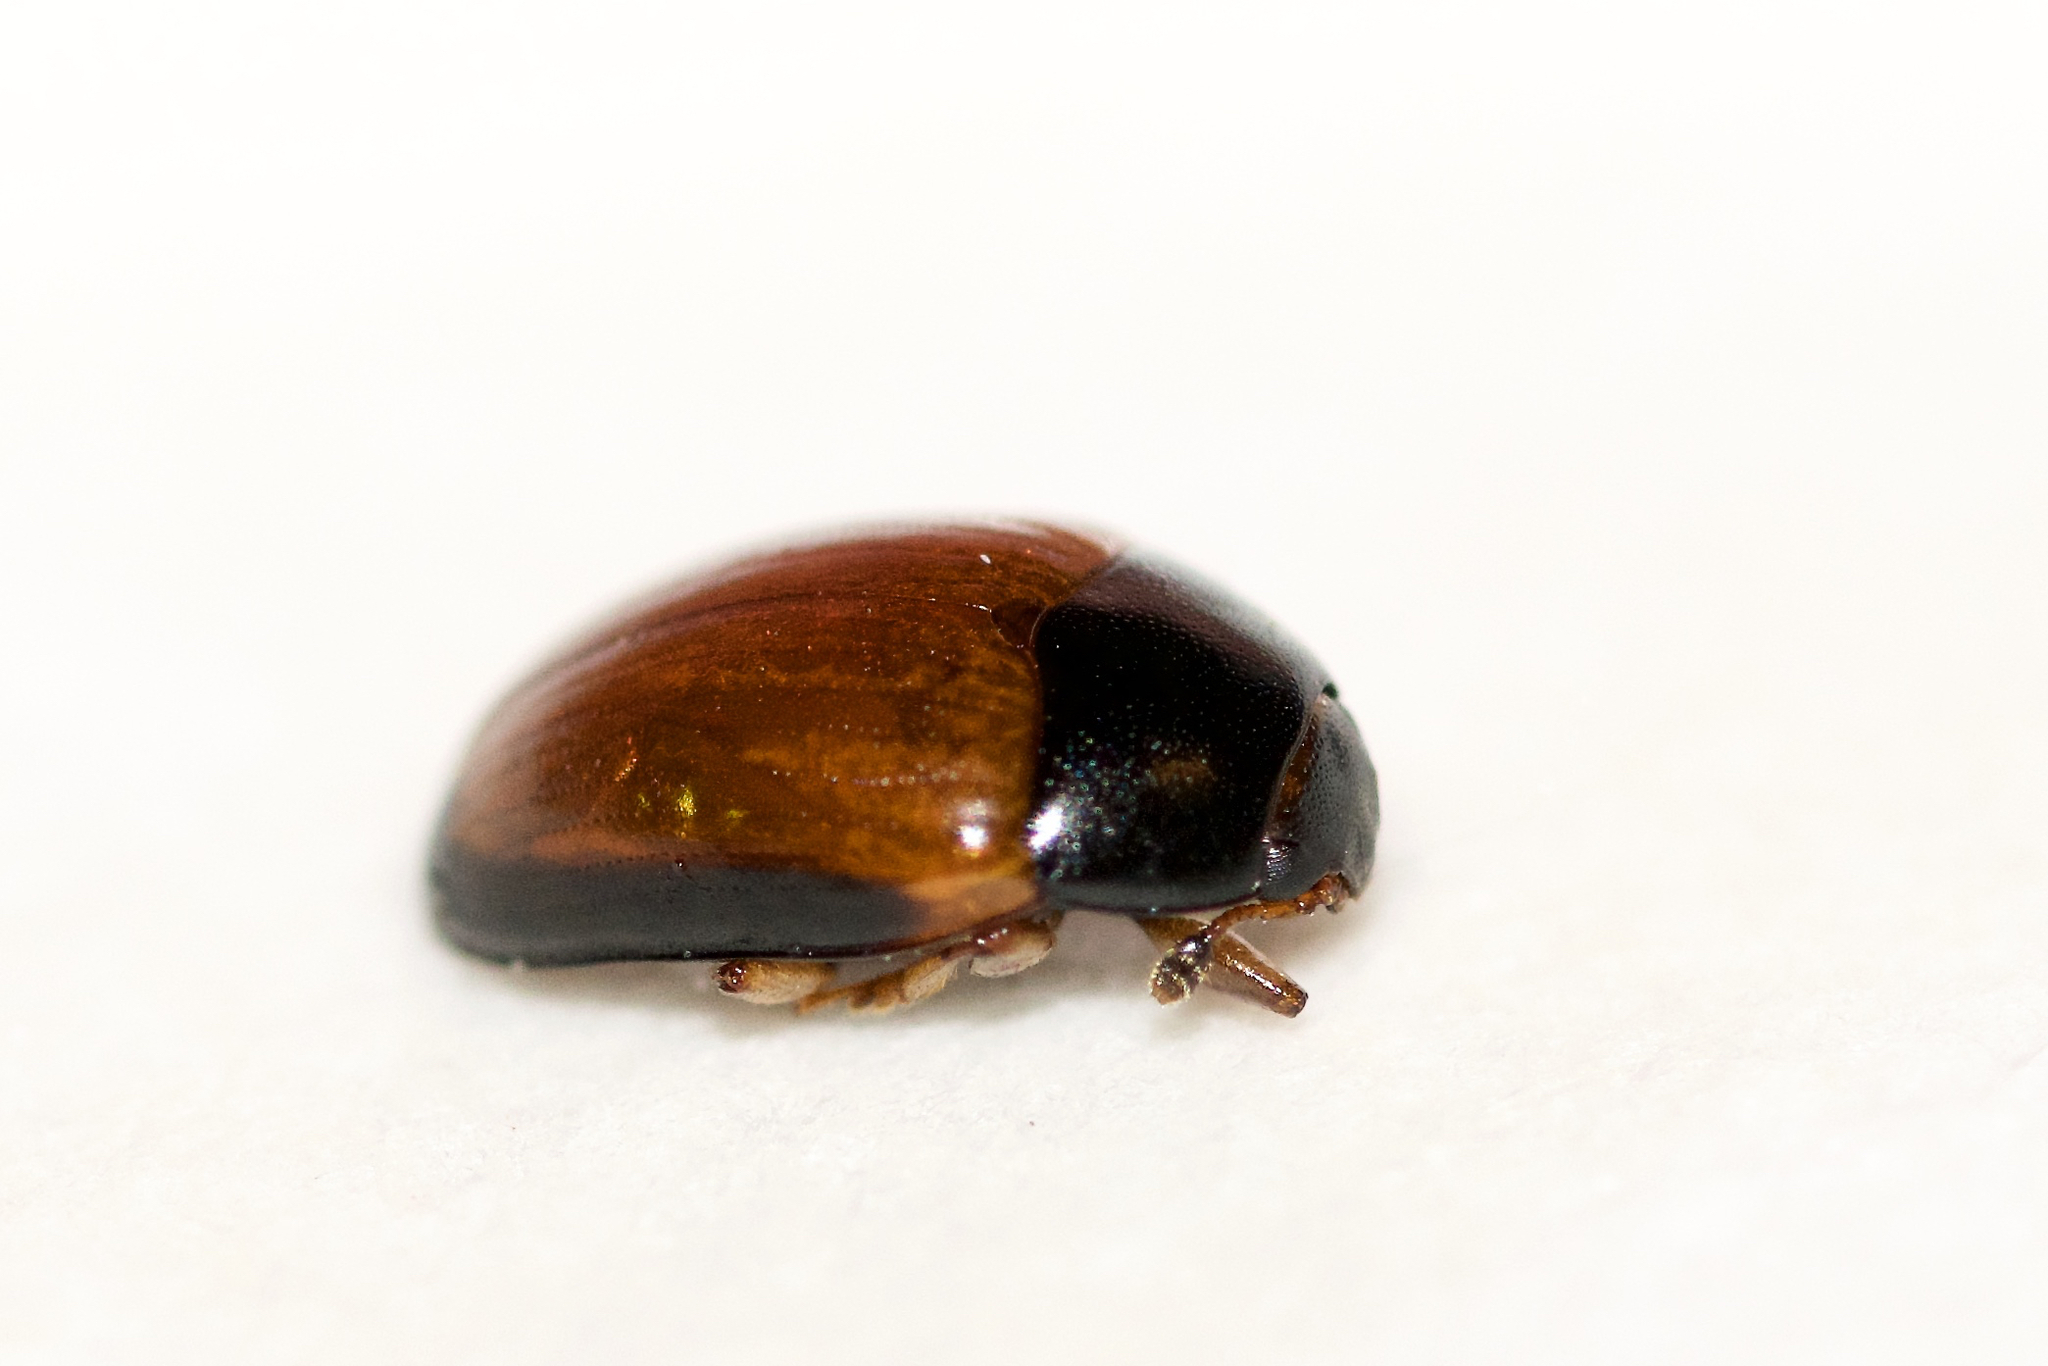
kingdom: Animalia
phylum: Arthropoda
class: Insecta
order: Coleoptera
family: Erotylidae
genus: Tritoma
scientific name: Tritoma mimetica
